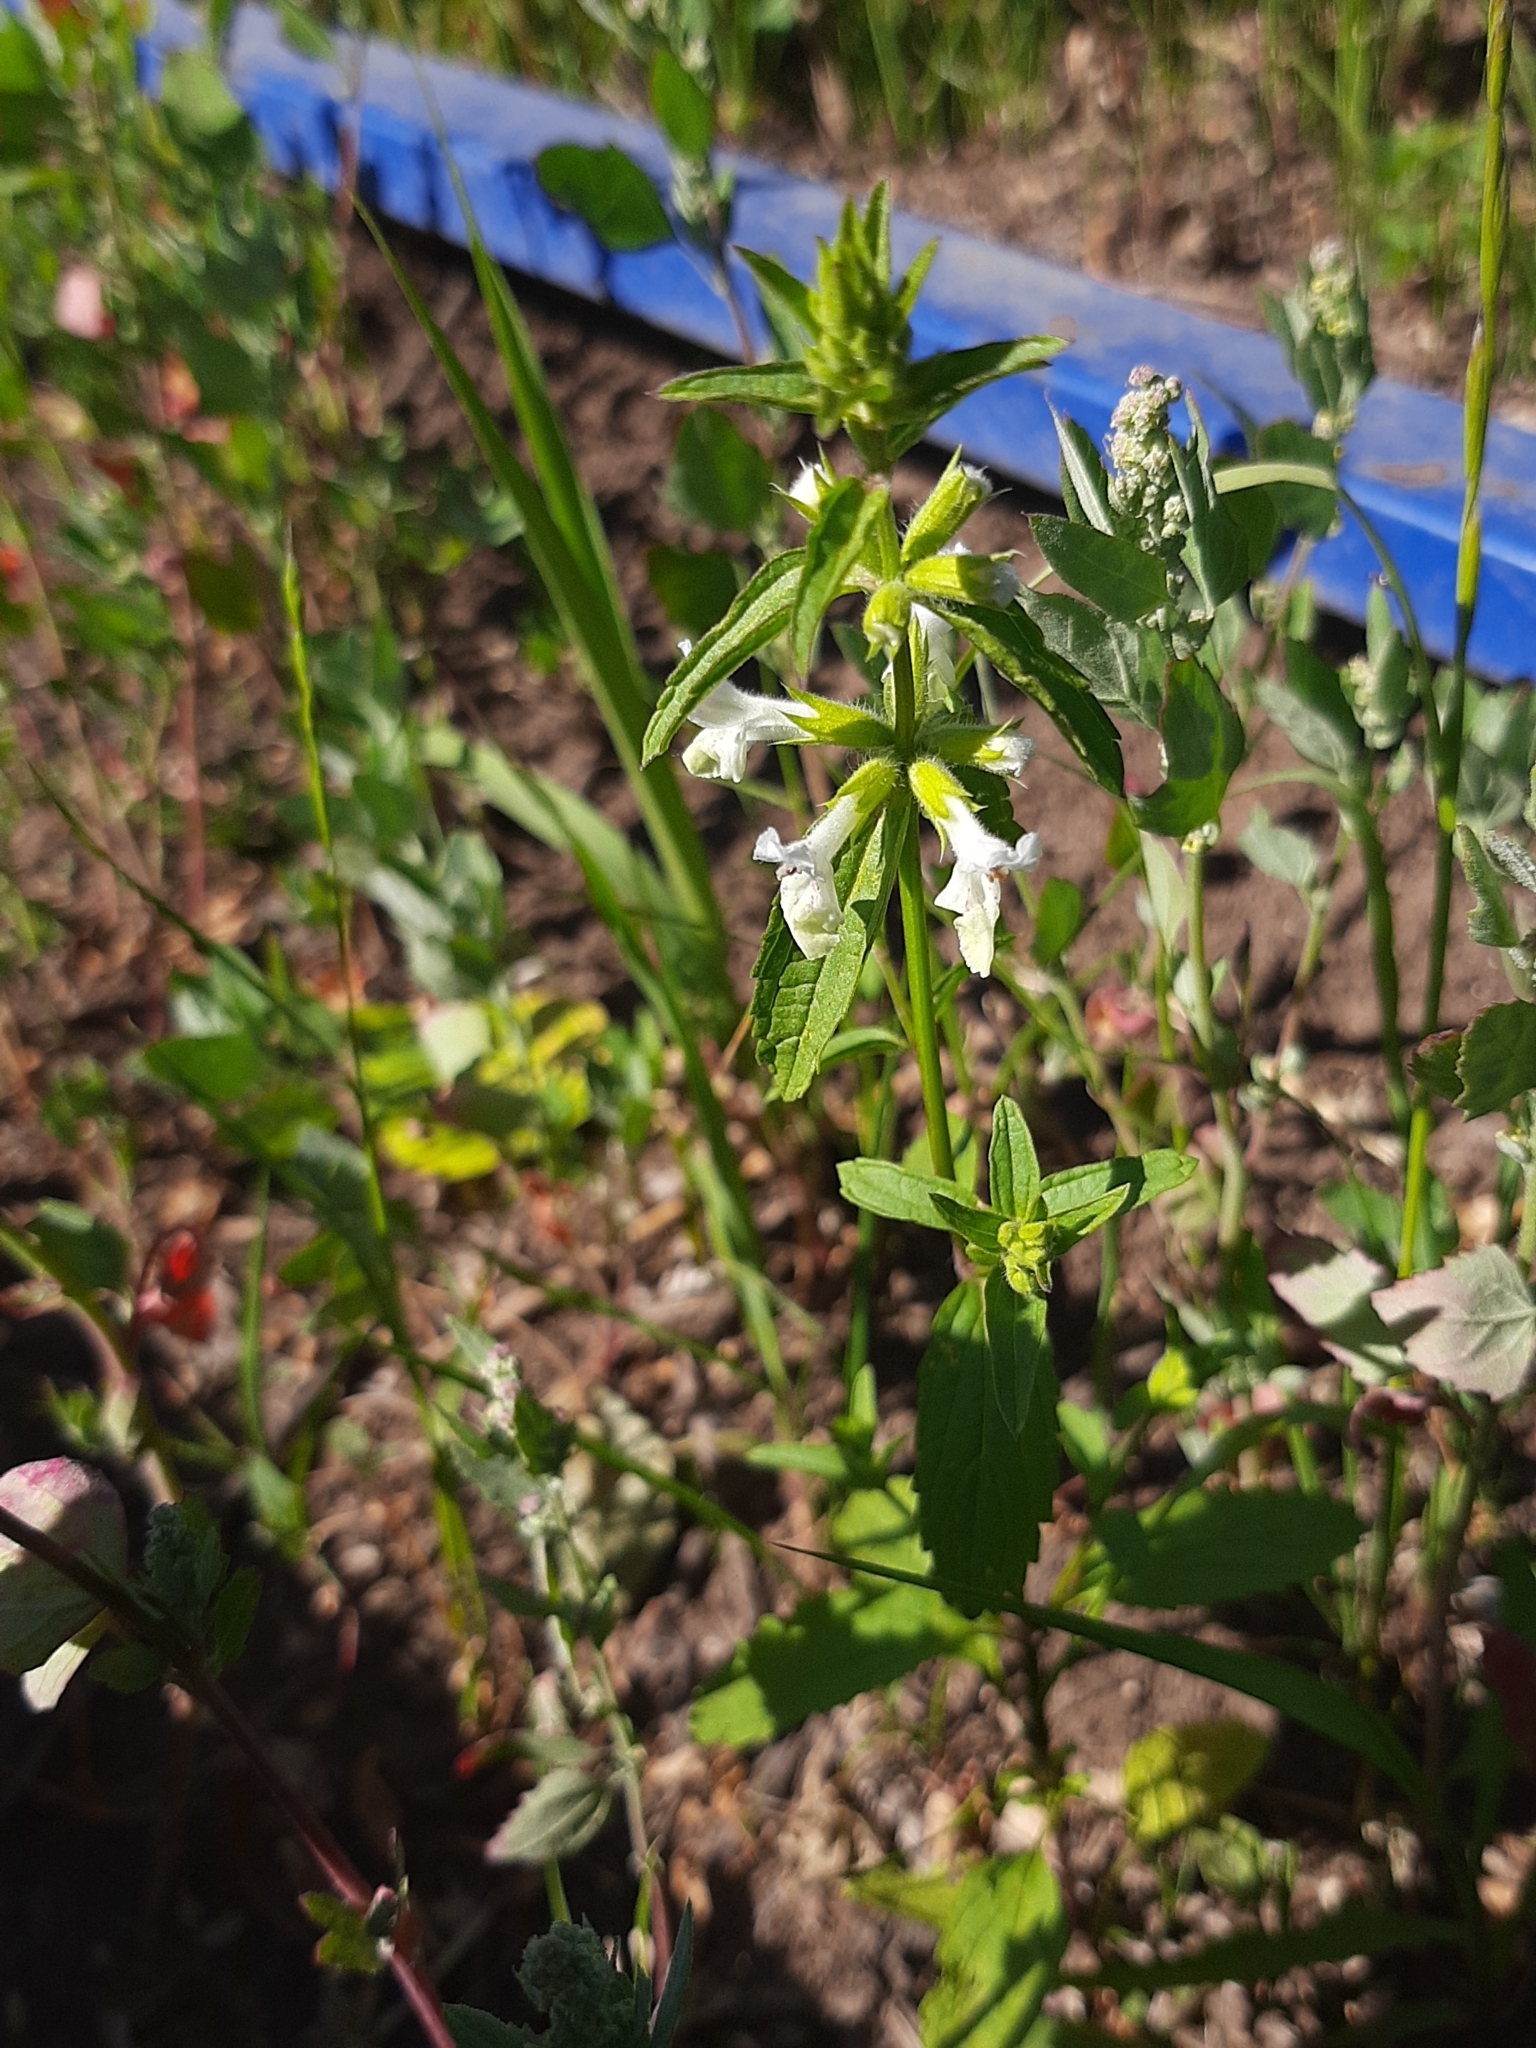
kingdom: Plantae
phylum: Tracheophyta
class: Magnoliopsida
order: Lamiales
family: Lamiaceae
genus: Stachys
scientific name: Stachys annua
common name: Annual yellow-woundwort
